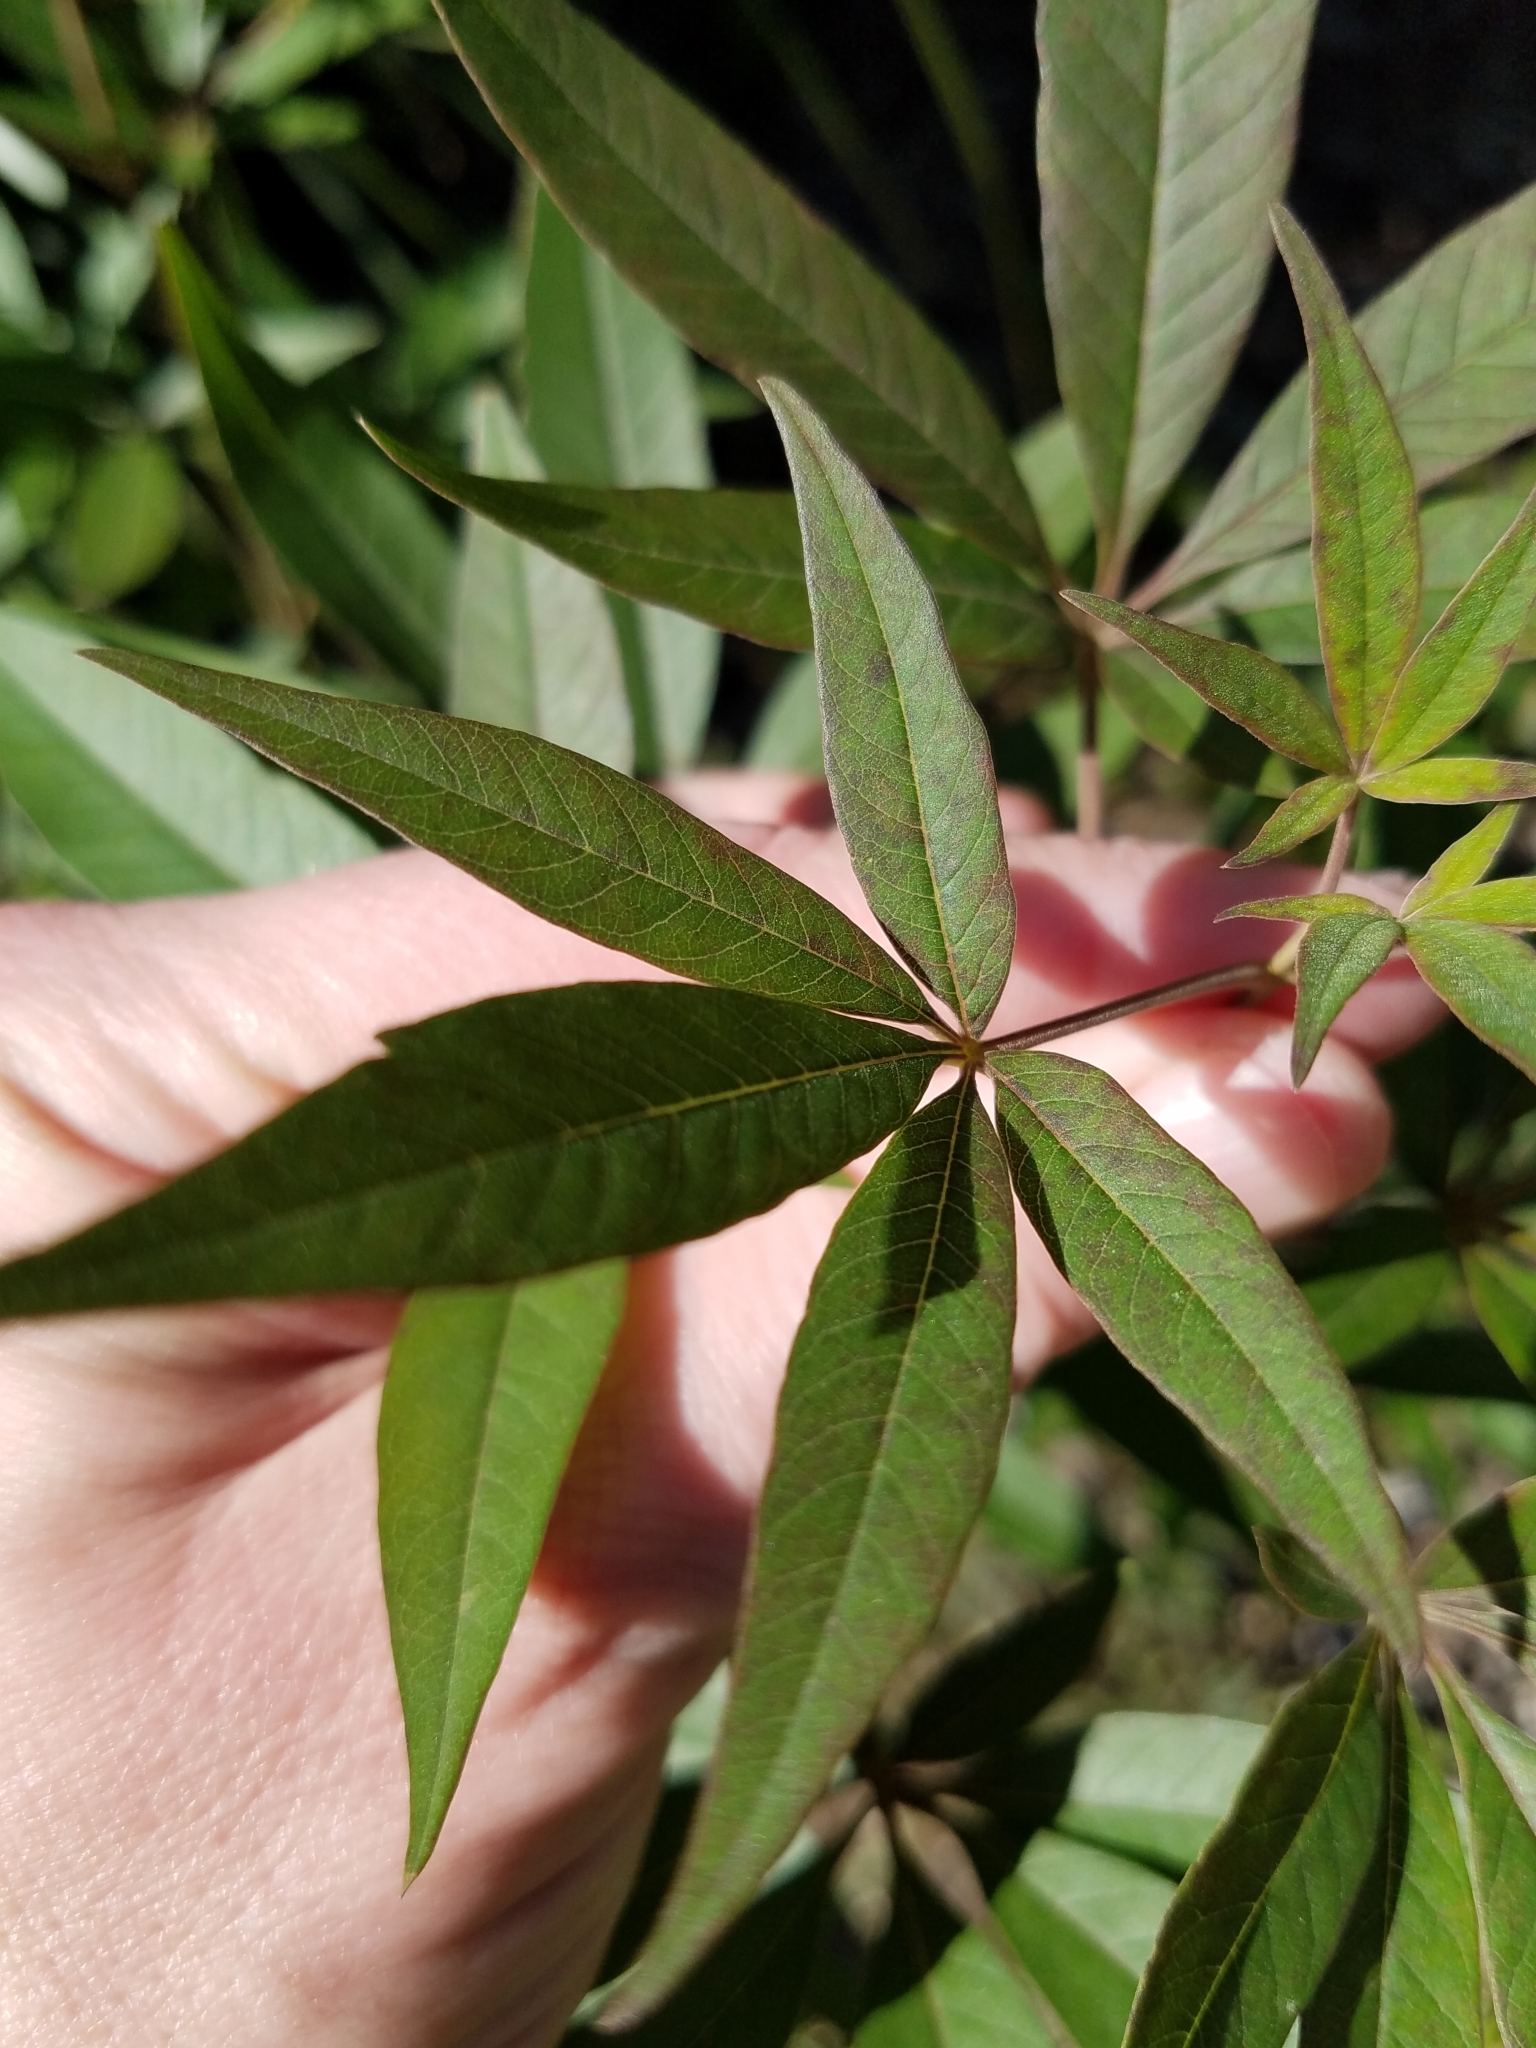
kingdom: Plantae
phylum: Tracheophyta
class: Magnoliopsida
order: Lamiales
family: Lamiaceae
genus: Vitex
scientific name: Vitex agnus-castus
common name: Chasteberry
